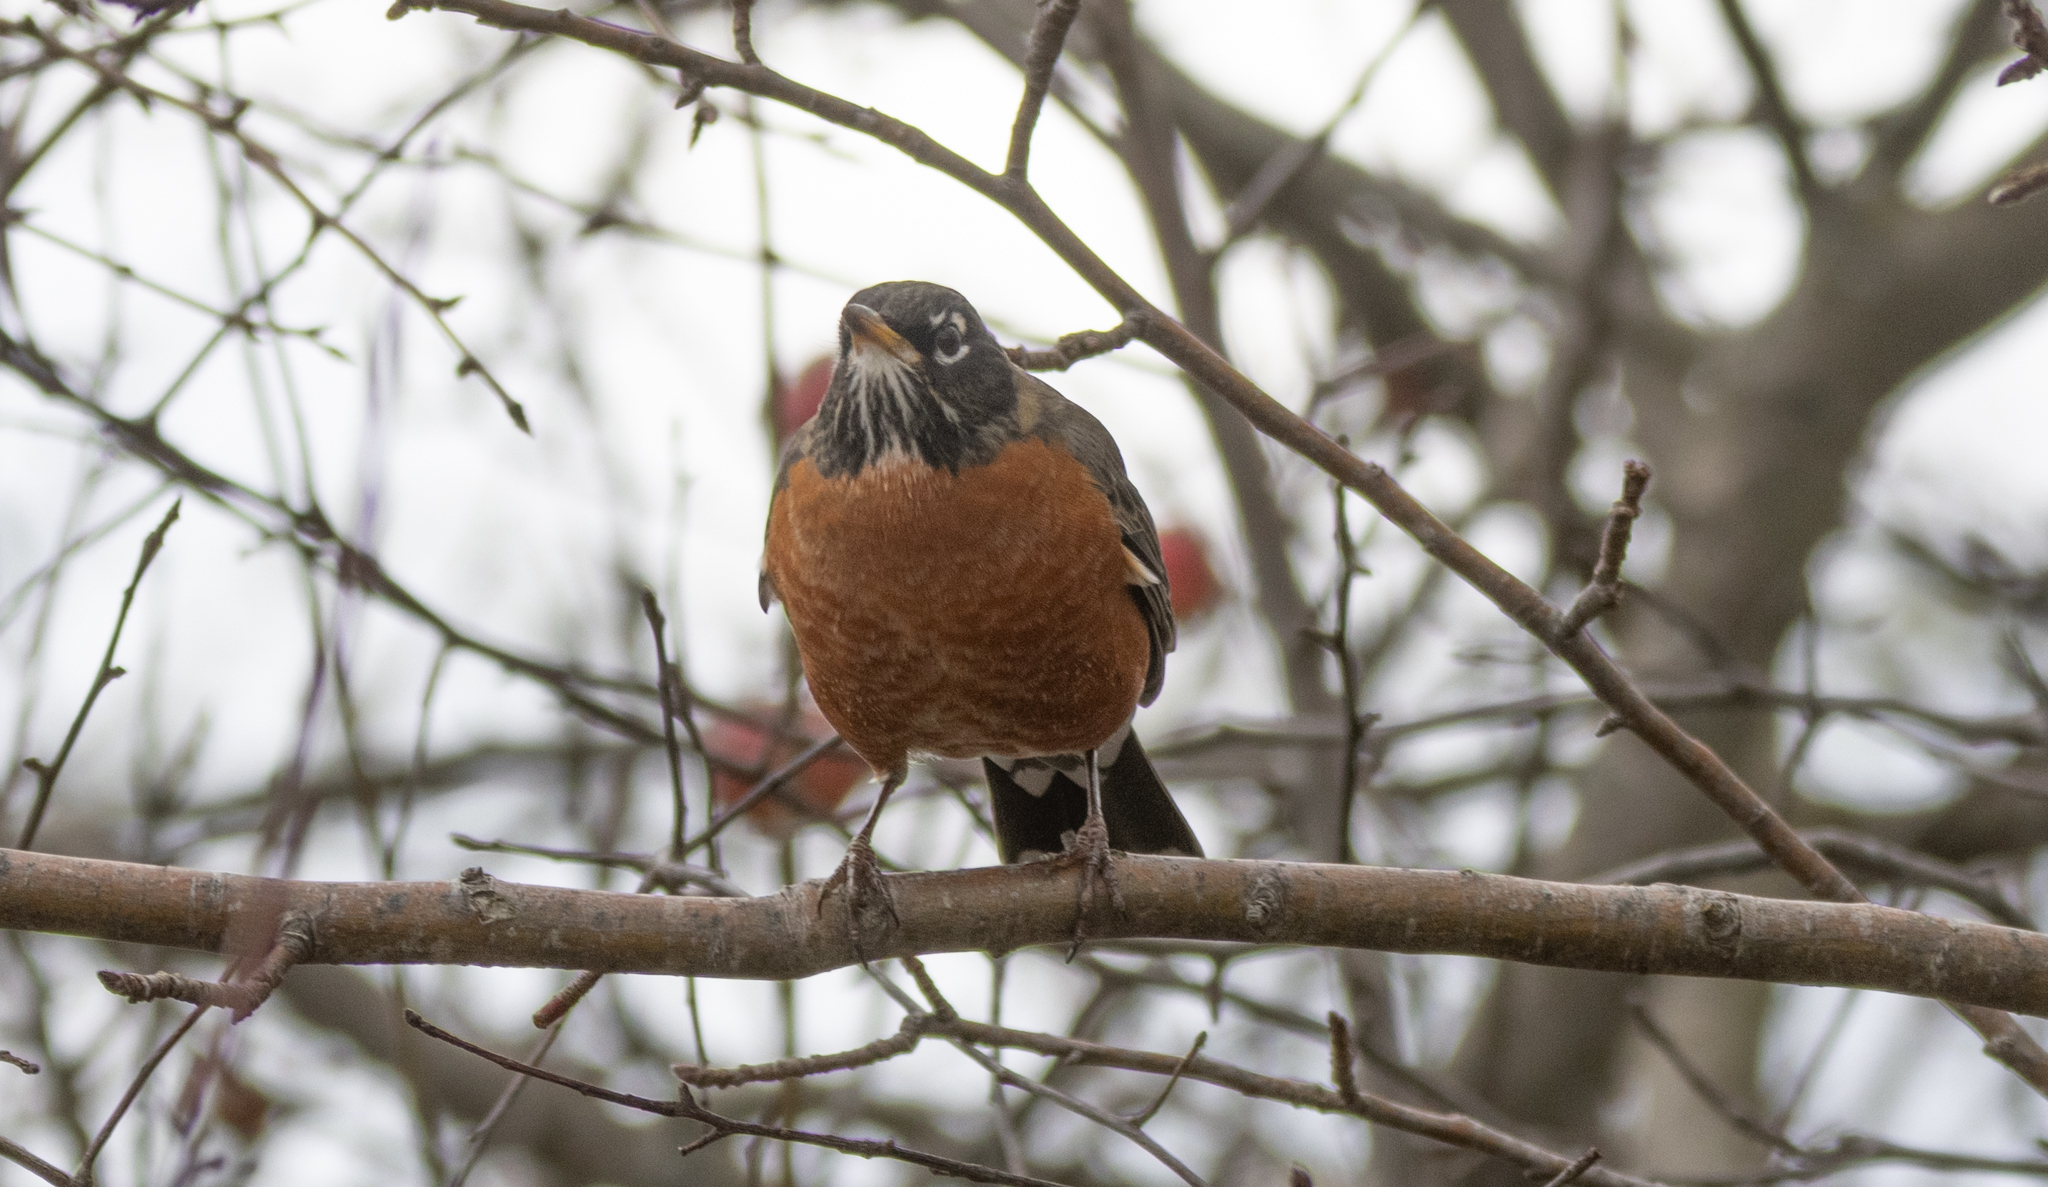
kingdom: Animalia
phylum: Chordata
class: Aves
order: Passeriformes
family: Turdidae
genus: Turdus
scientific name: Turdus migratorius
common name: American robin
